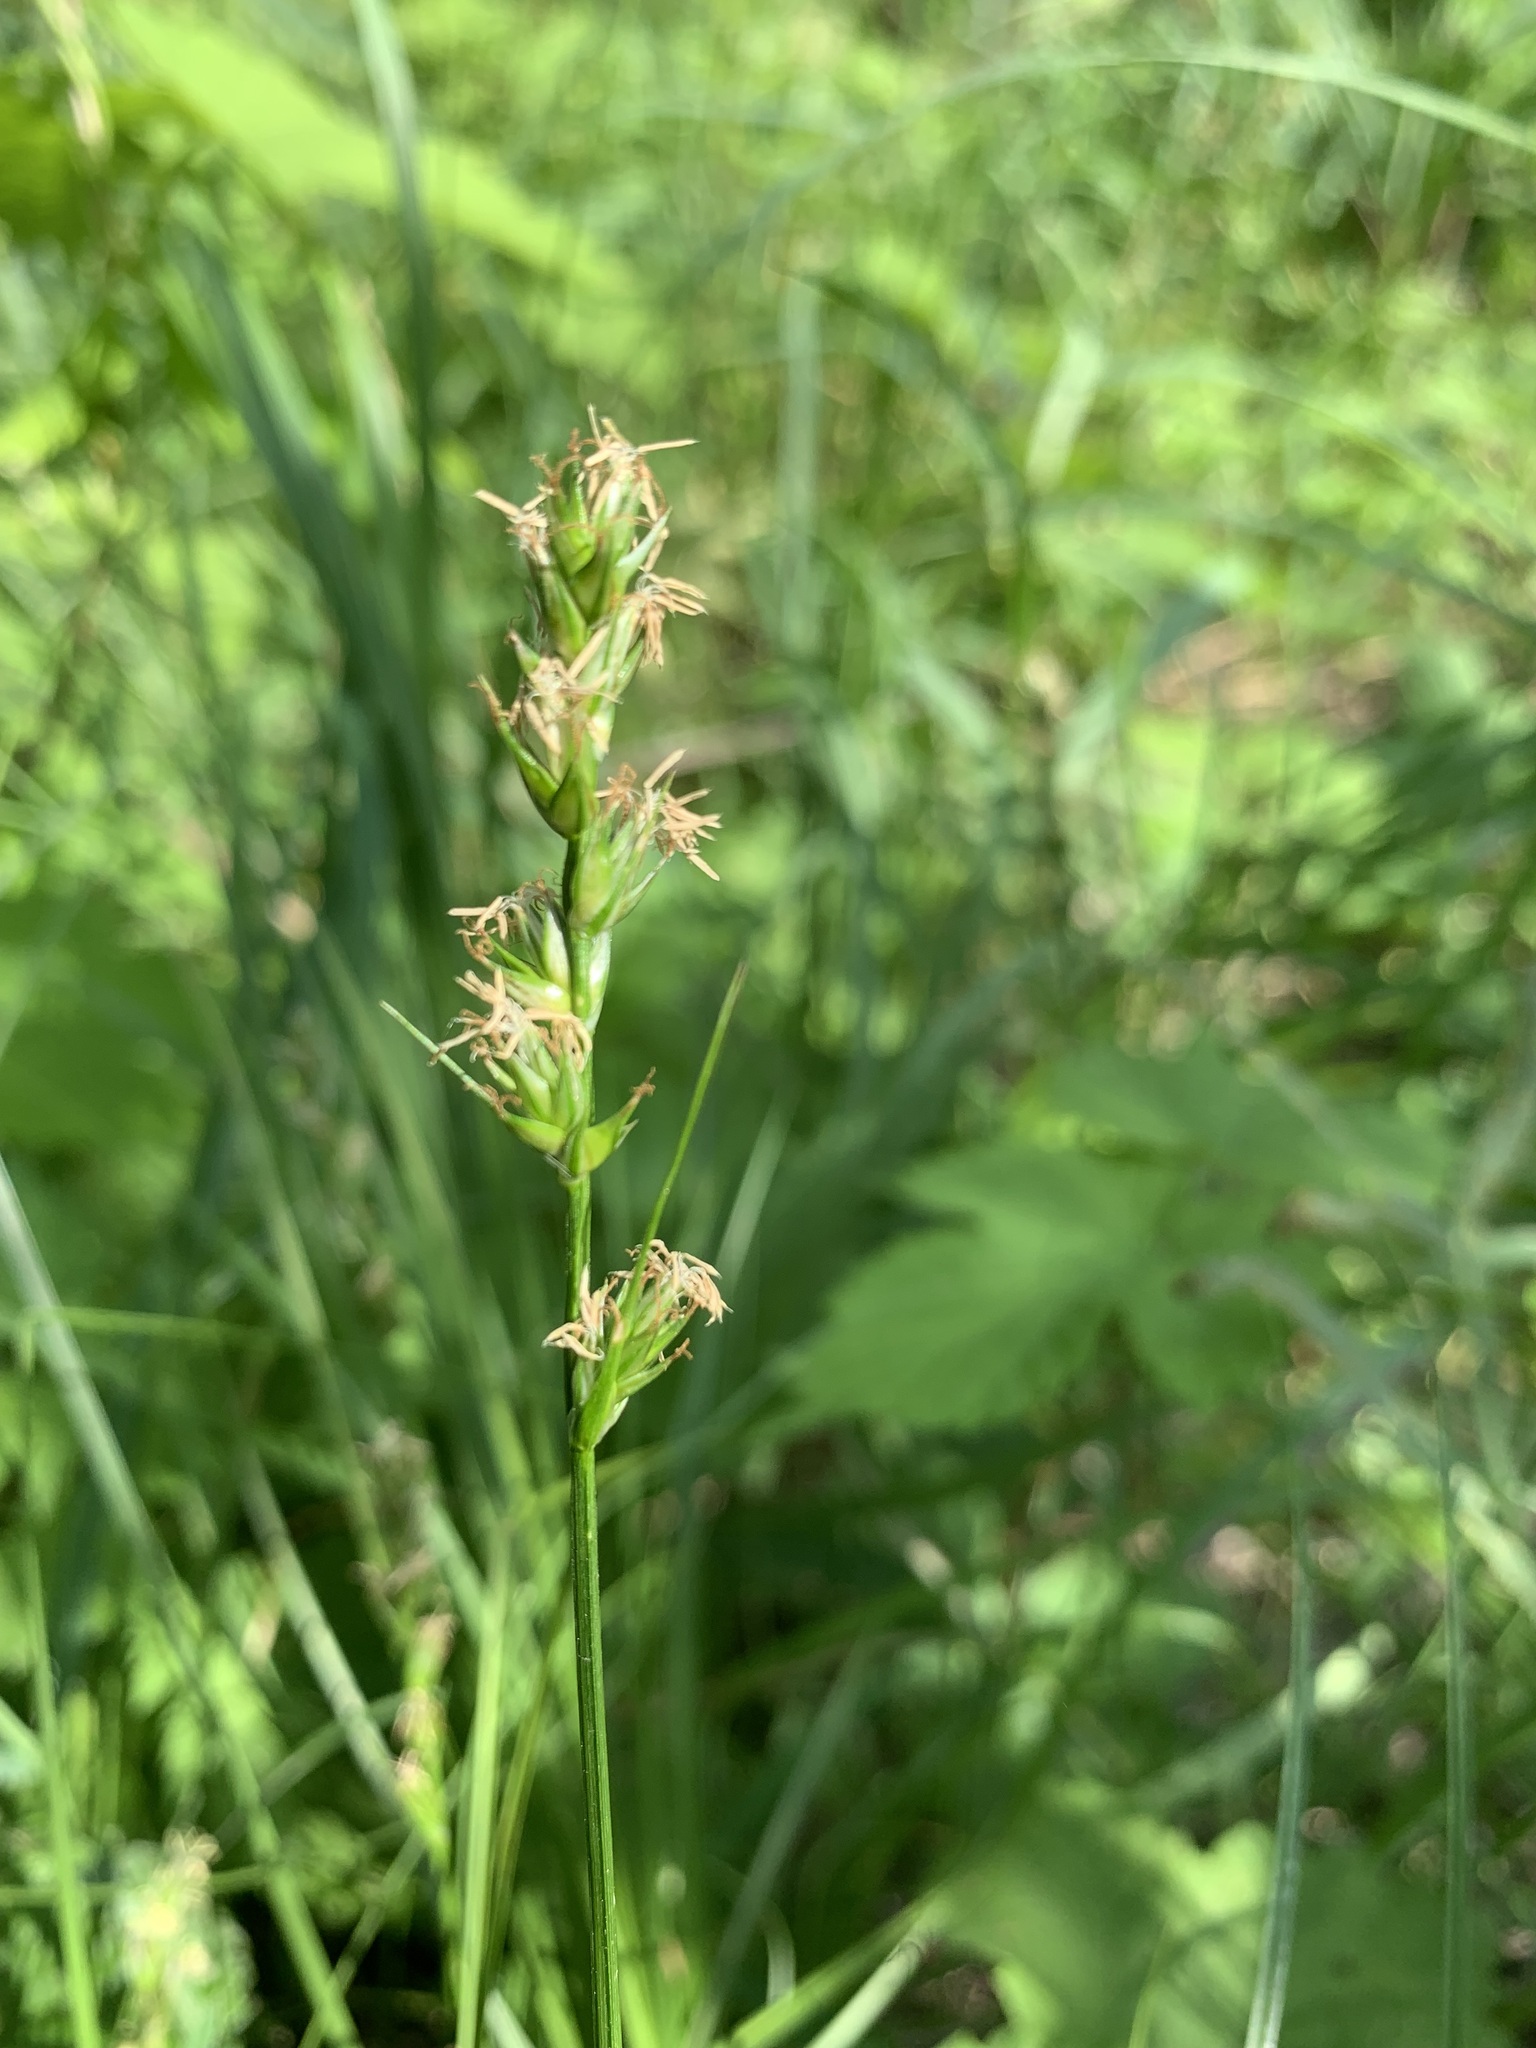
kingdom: Plantae
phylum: Tracheophyta
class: Liliopsida
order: Poales
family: Cyperaceae
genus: Carex
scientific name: Carex spicata
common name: Spiked sedge
